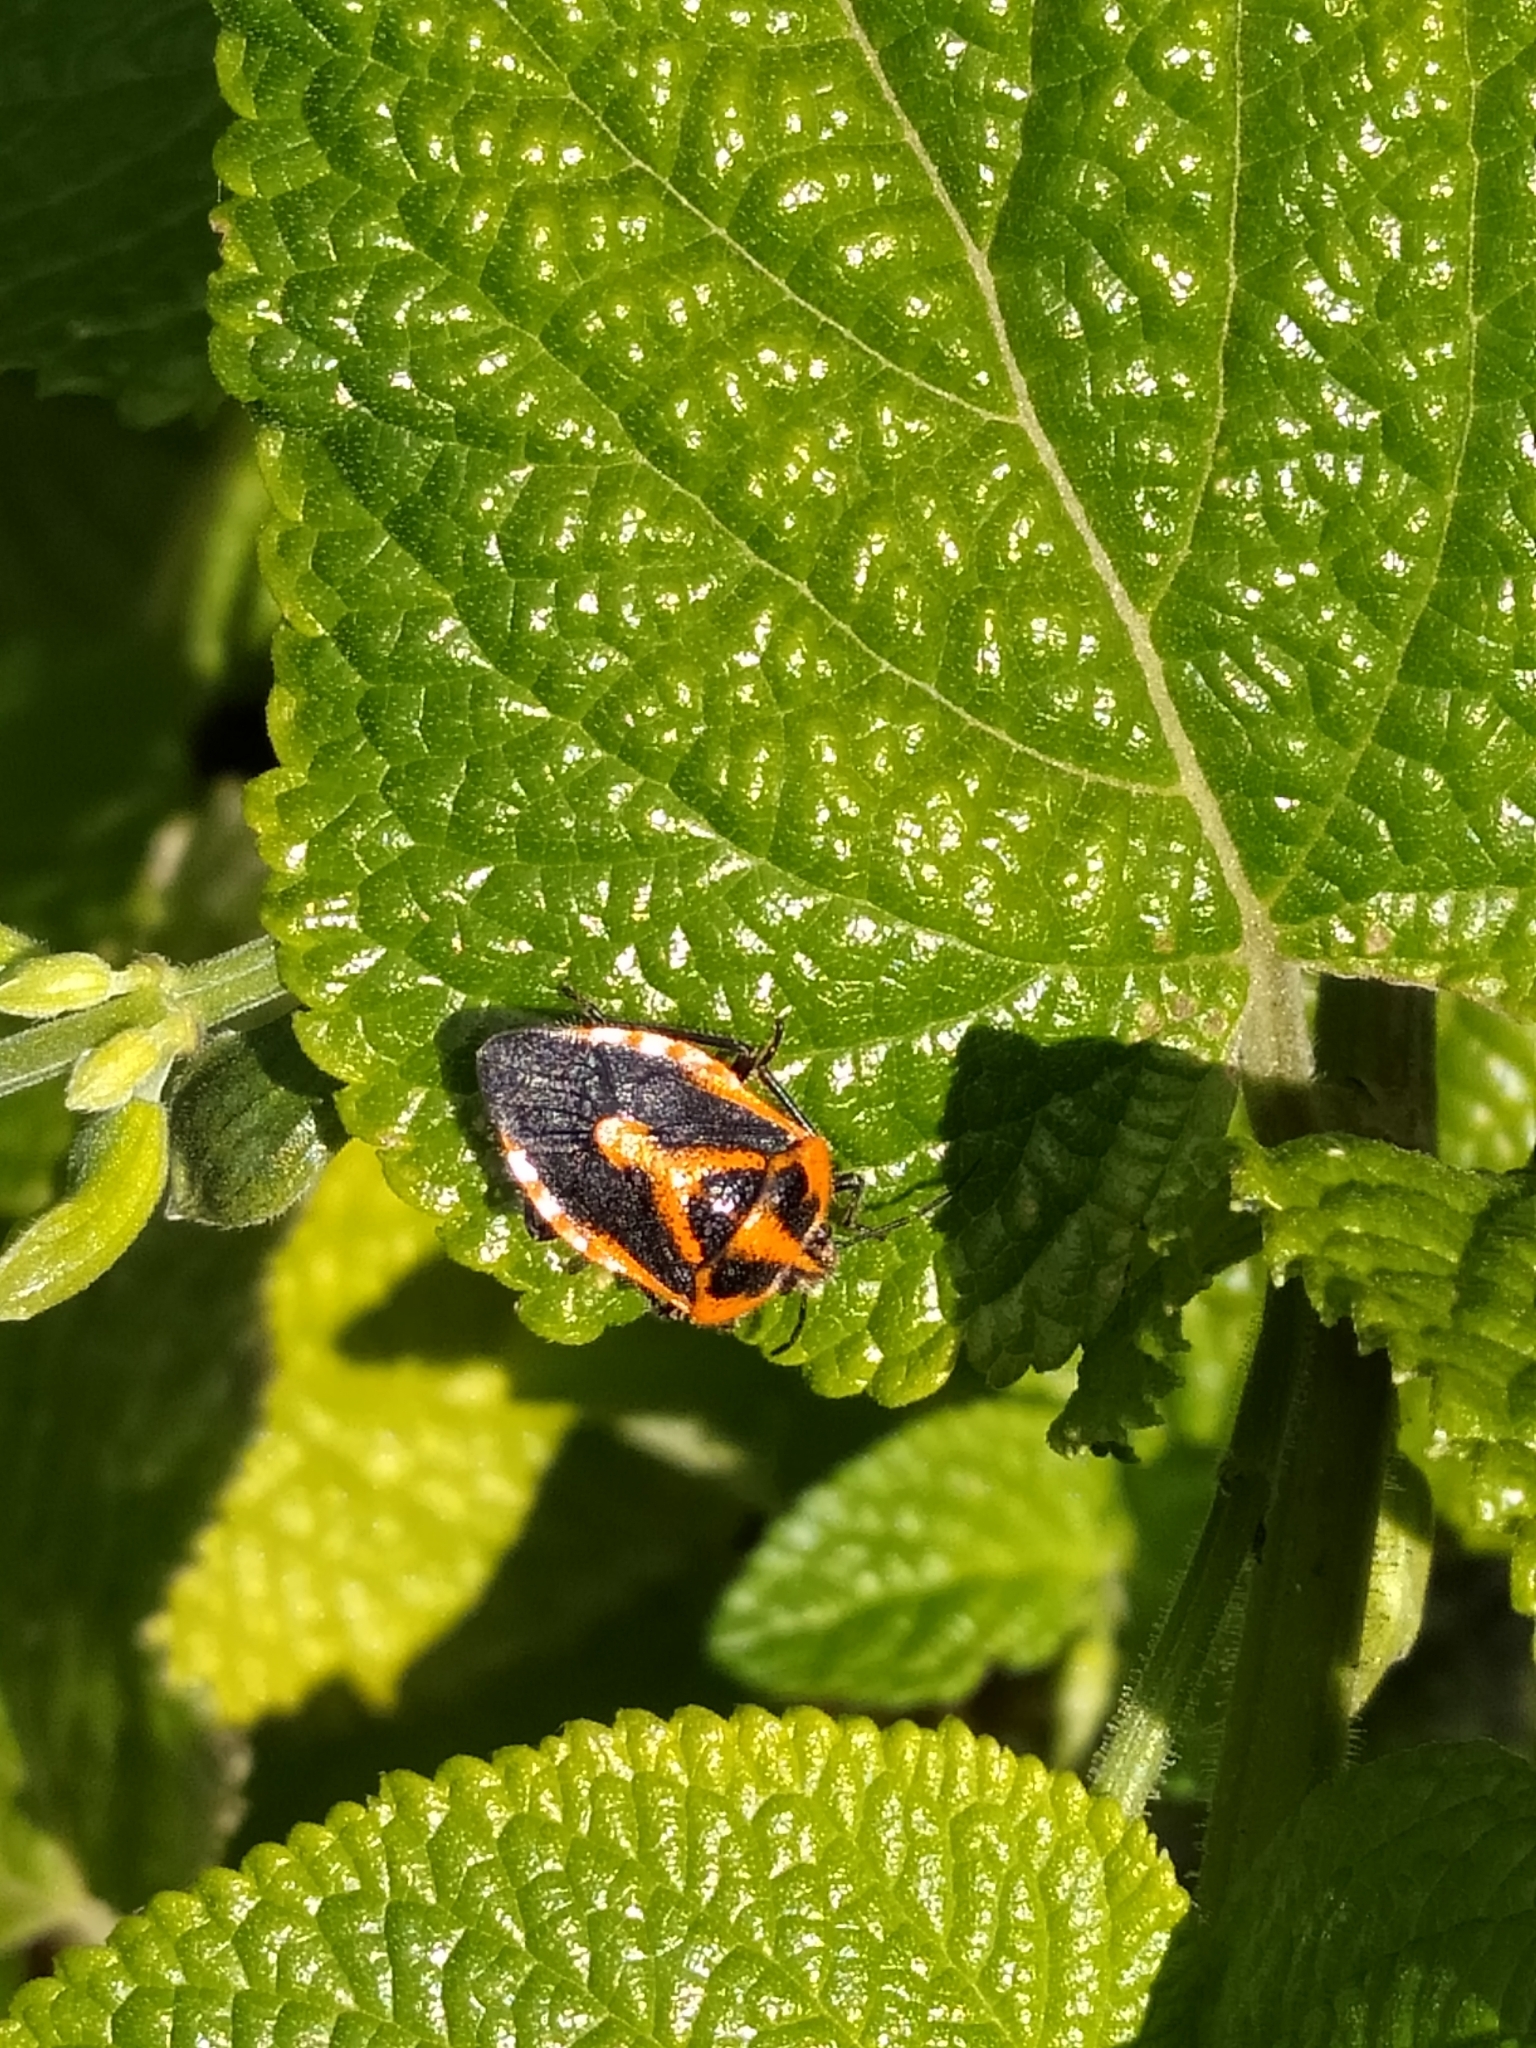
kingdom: Animalia
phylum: Arthropoda
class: Insecta
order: Hemiptera
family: Pentatomidae
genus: Agonoscelis
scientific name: Agonoscelis rutila
